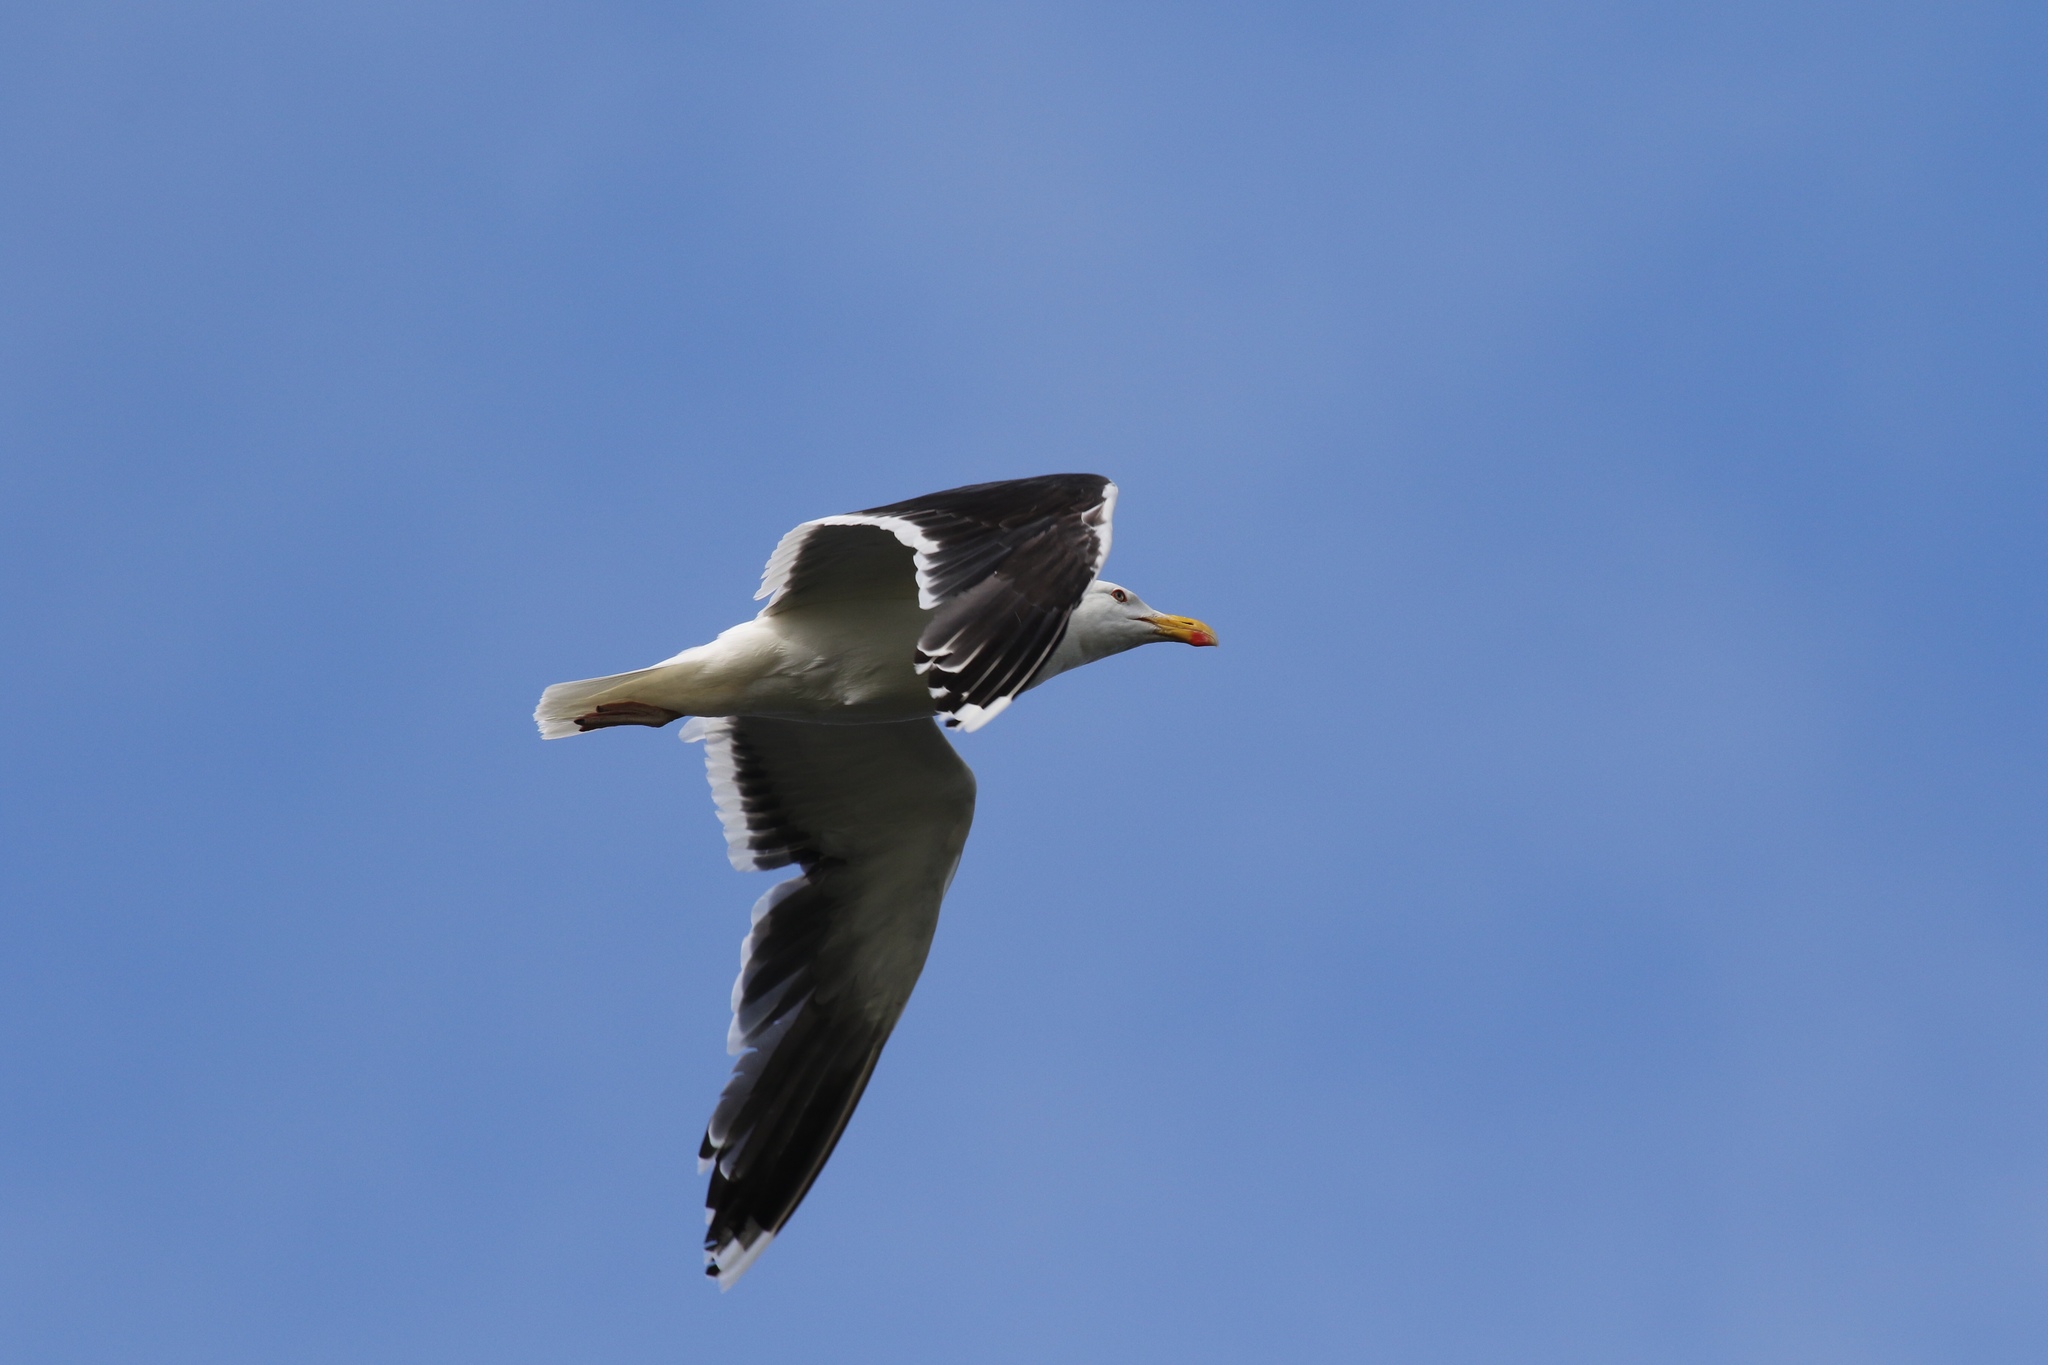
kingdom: Animalia
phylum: Chordata
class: Aves
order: Charadriiformes
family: Laridae
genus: Larus
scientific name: Larus marinus
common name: Great black-backed gull
